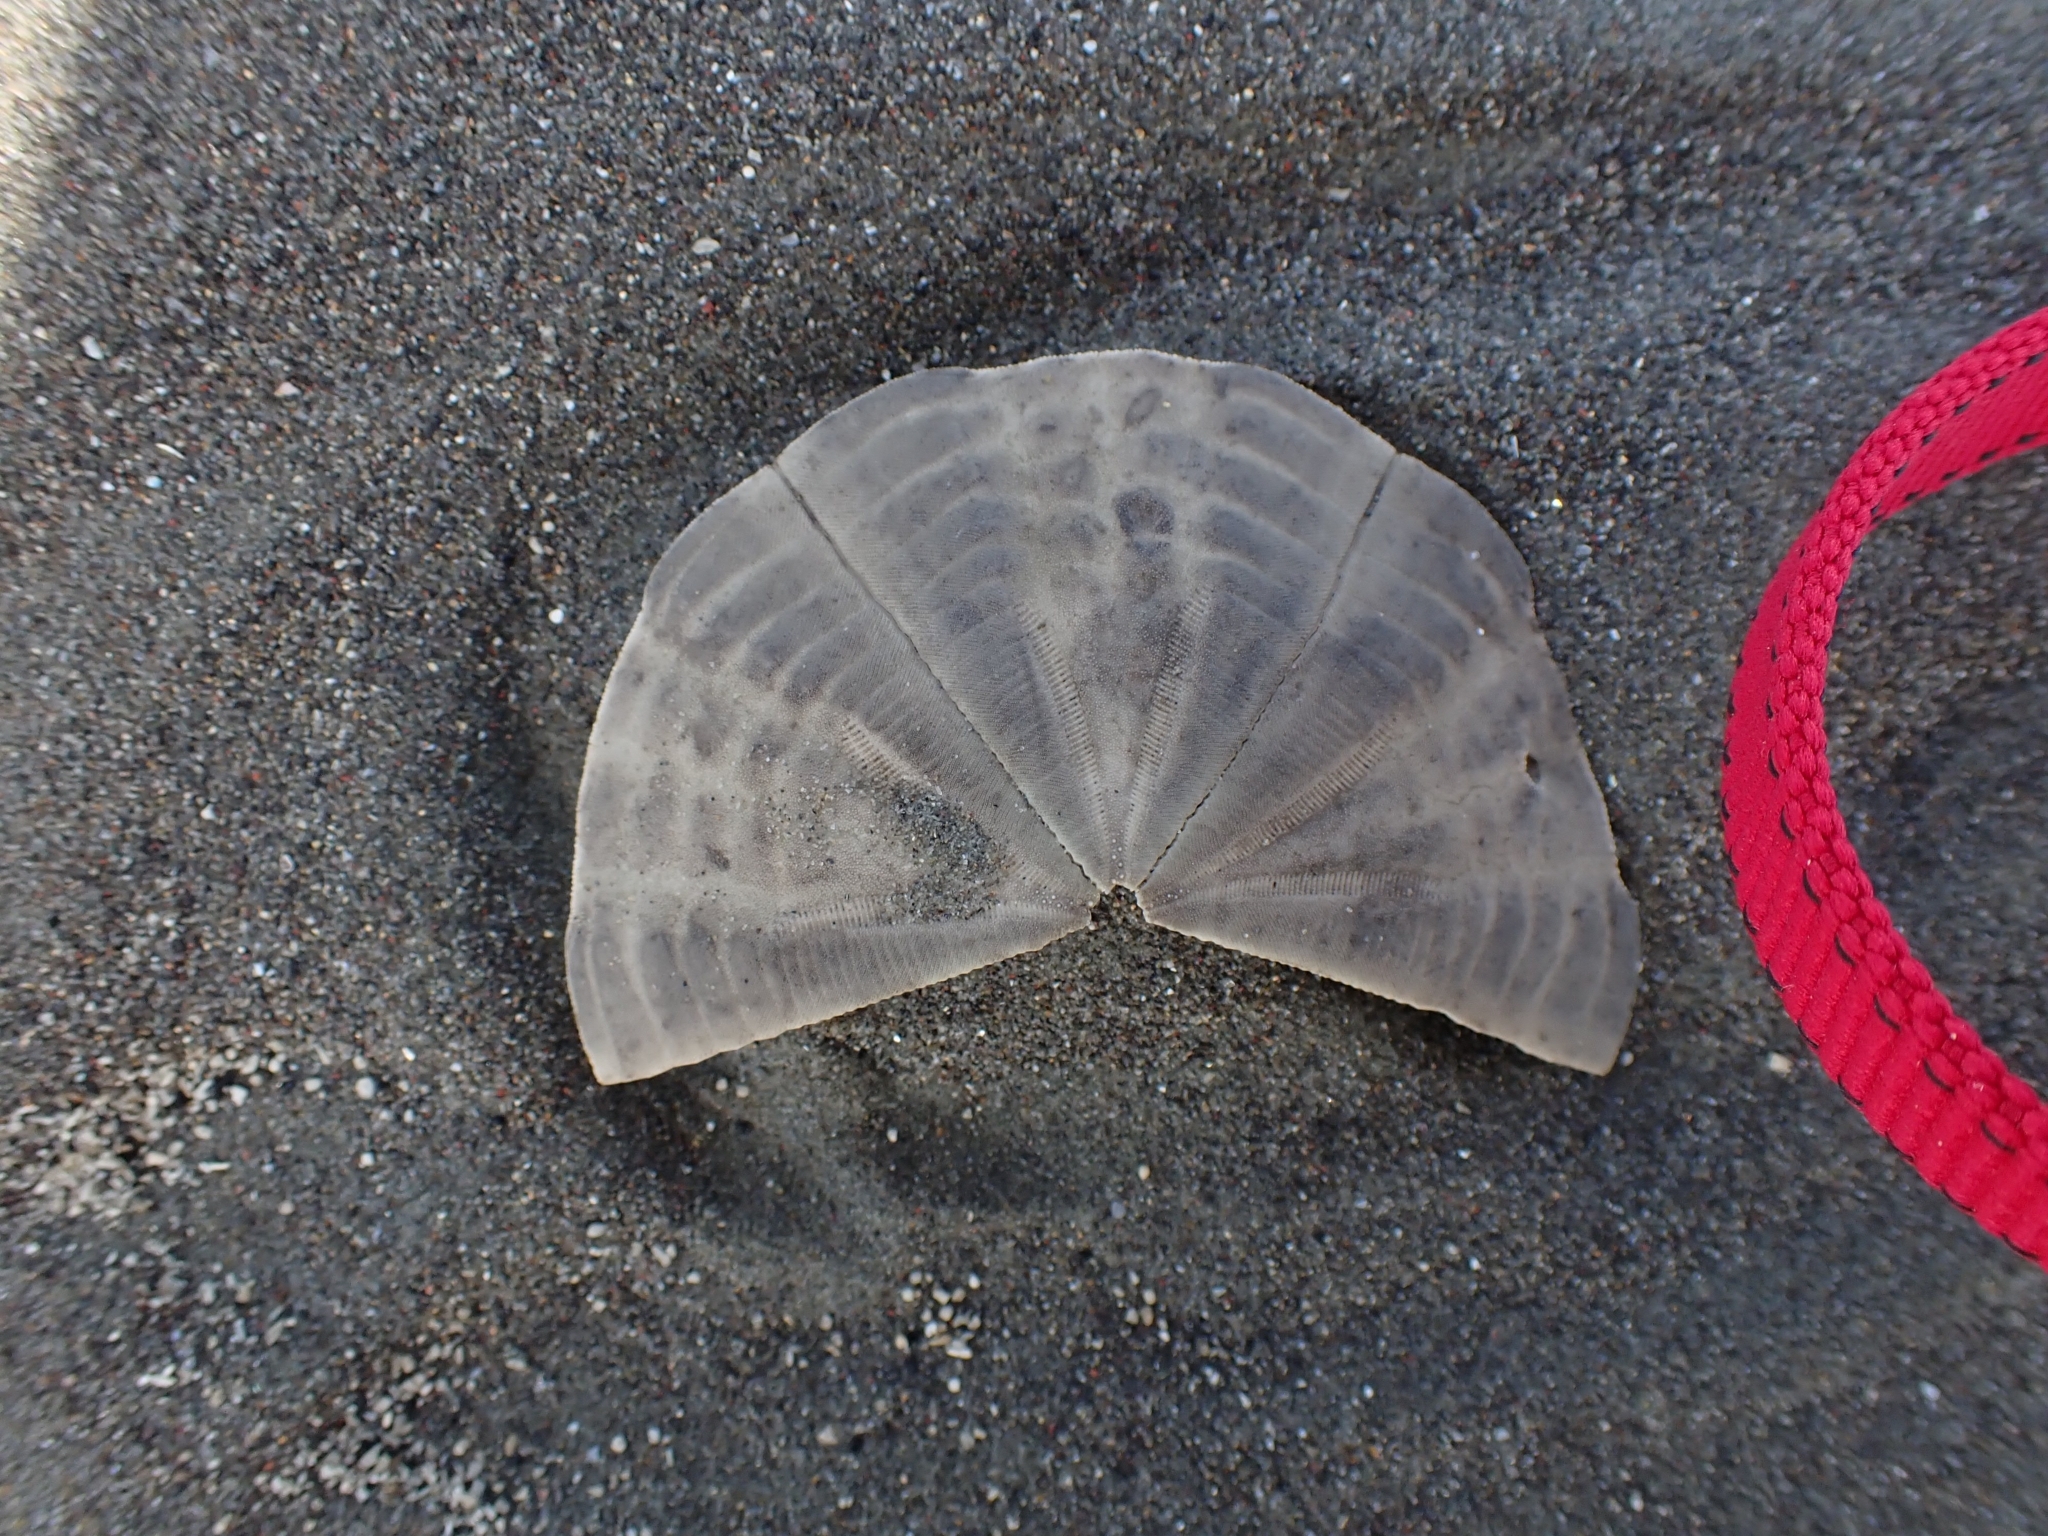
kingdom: Animalia
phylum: Echinodermata
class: Echinoidea
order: Clypeasteroida
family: Clypeasteridae
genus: Fellaster
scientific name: Fellaster zelandiae
